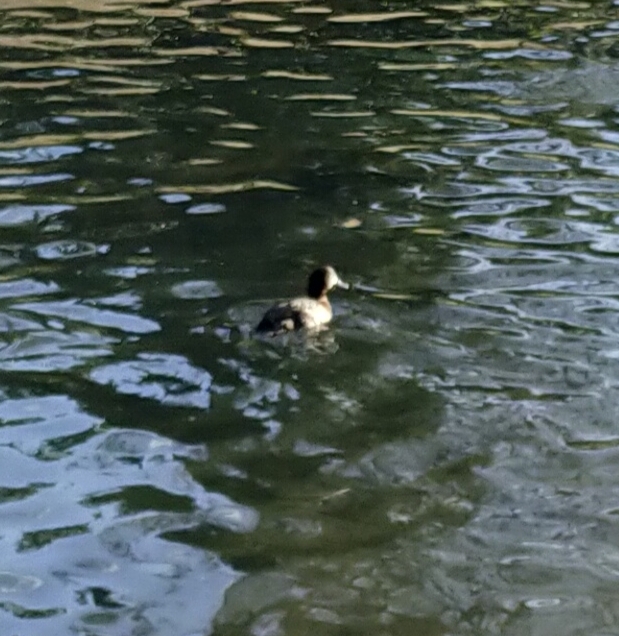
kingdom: Animalia
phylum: Chordata
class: Aves
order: Anseriformes
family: Anatidae
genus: Aythya
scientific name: Aythya fuligula
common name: Tufted duck
